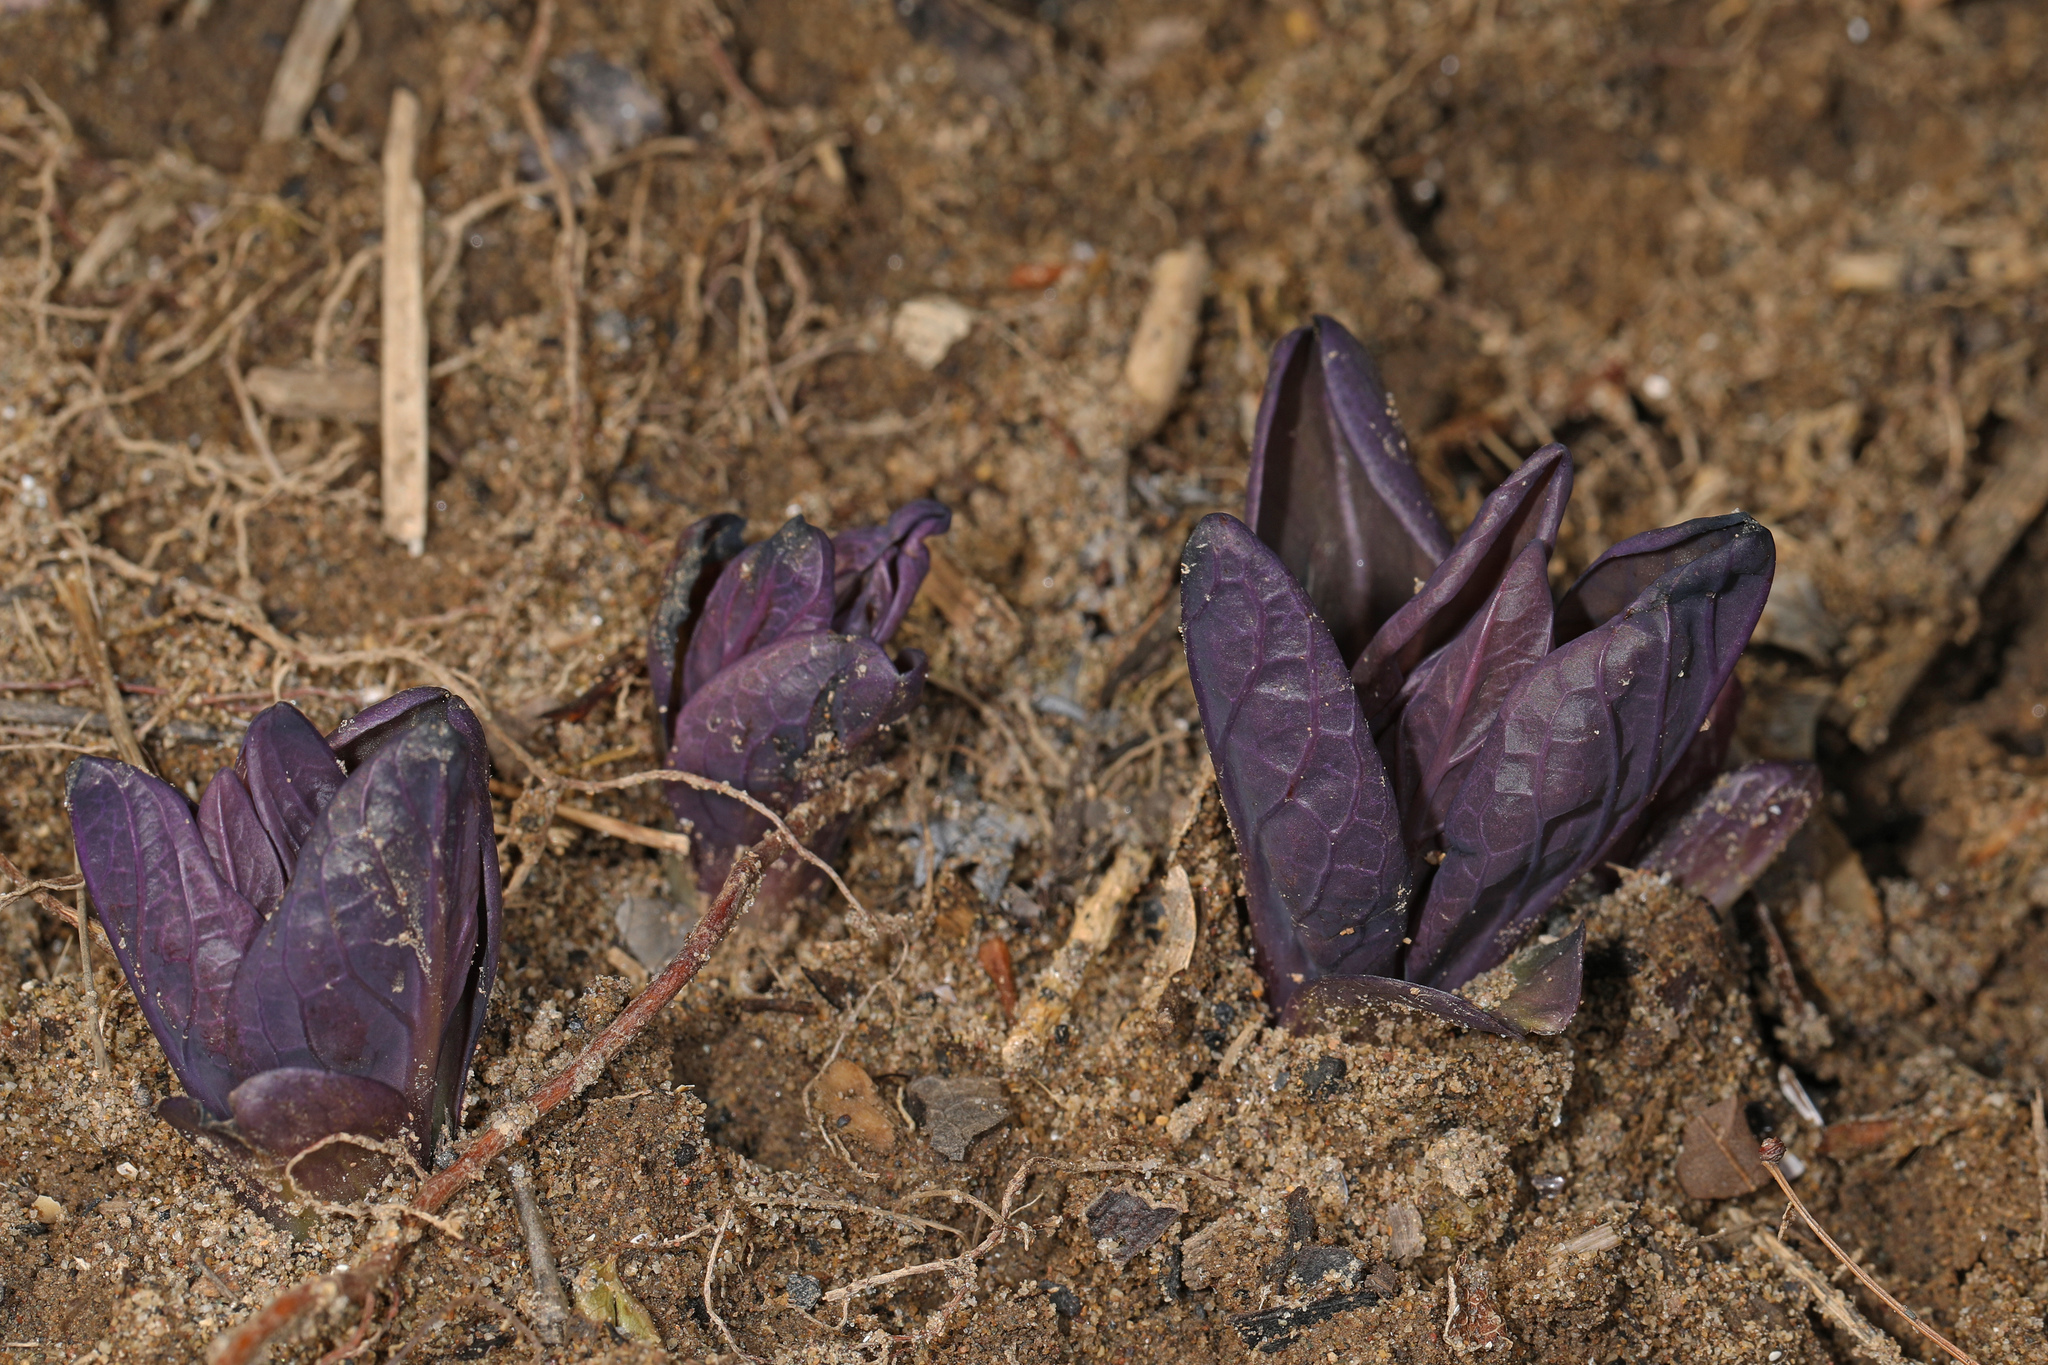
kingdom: Plantae
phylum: Tracheophyta
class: Magnoliopsida
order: Boraginales
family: Boraginaceae
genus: Mertensia
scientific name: Mertensia virginica
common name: Virginia bluebells
